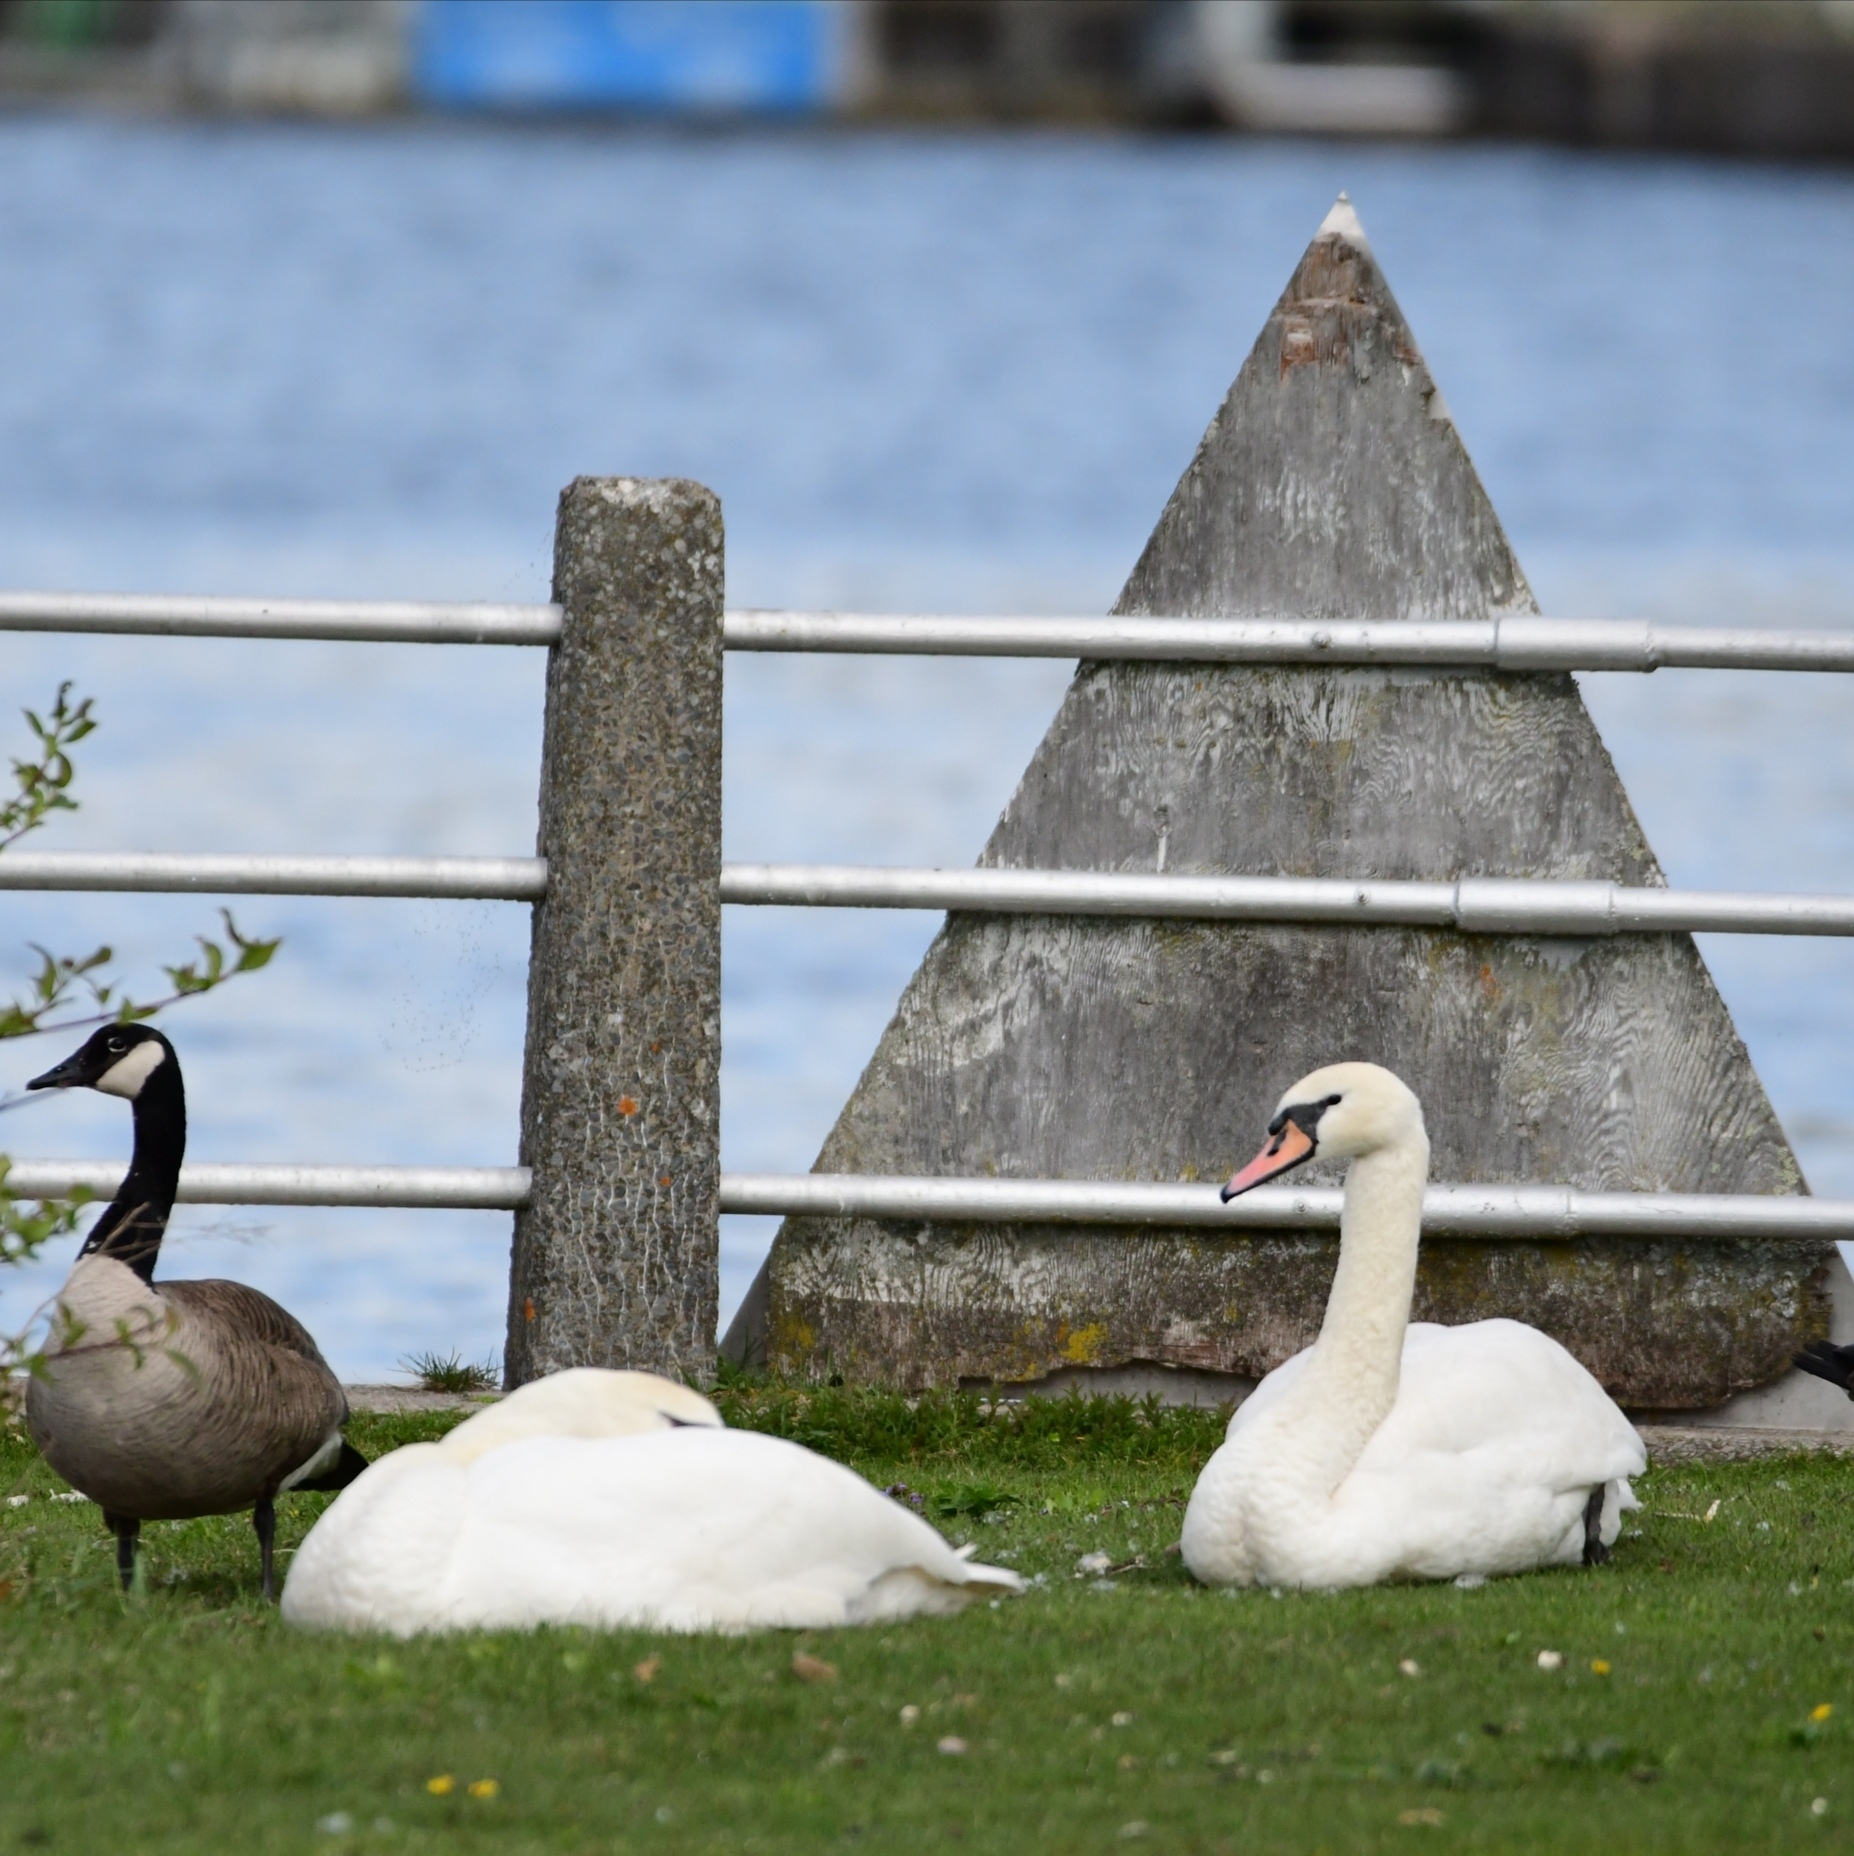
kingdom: Animalia
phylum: Chordata
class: Aves
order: Anseriformes
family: Anatidae
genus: Cygnus
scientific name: Cygnus olor
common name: Mute swan
